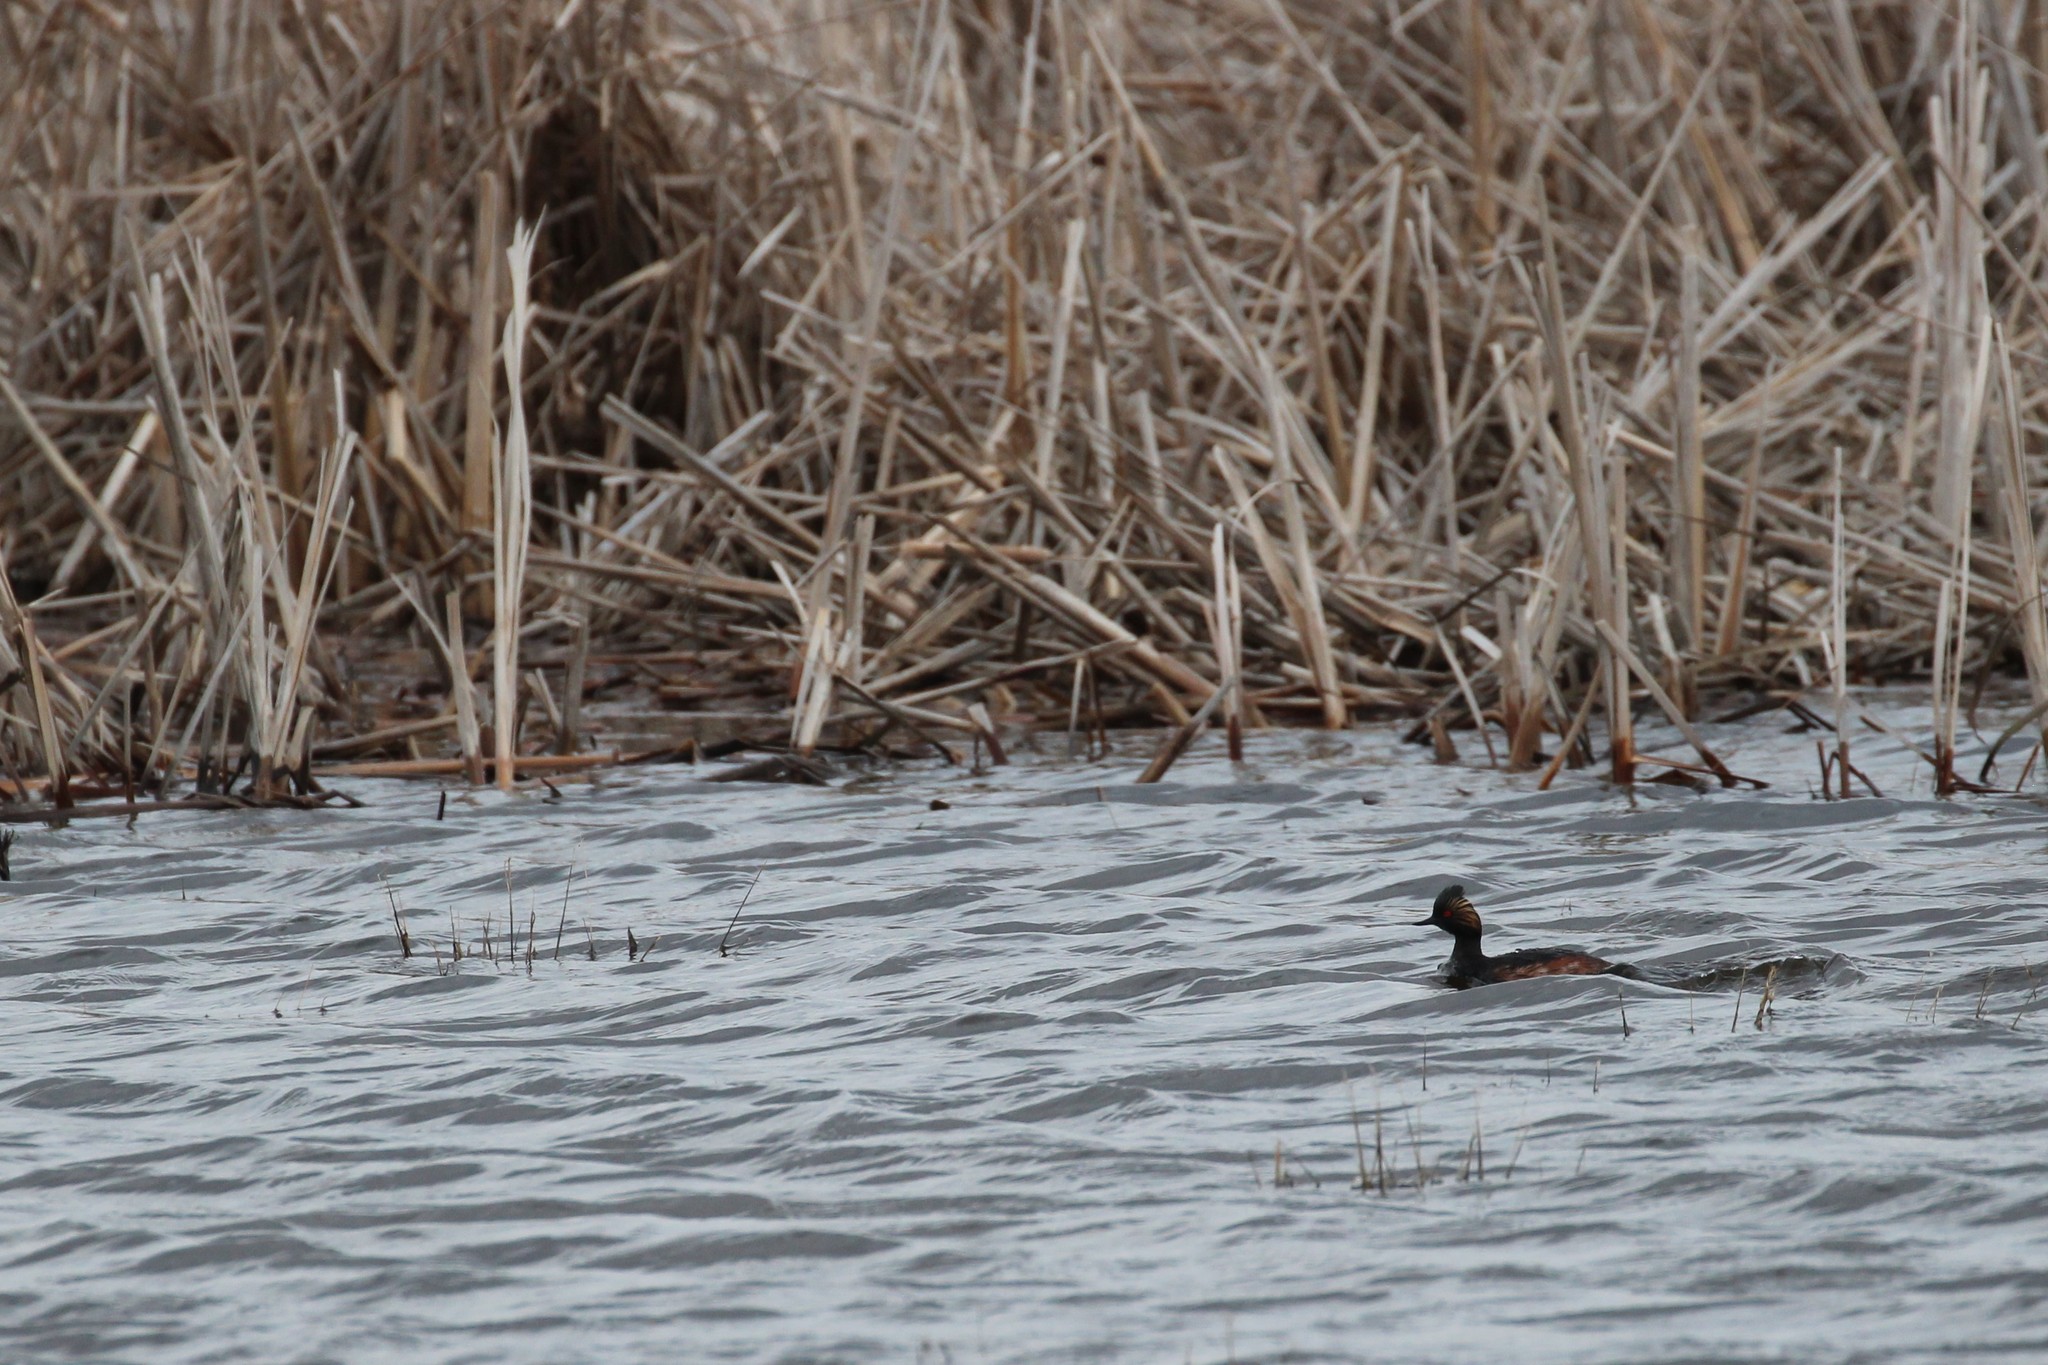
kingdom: Animalia
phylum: Chordata
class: Aves
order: Podicipediformes
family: Podicipedidae
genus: Podiceps
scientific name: Podiceps nigricollis
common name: Black-necked grebe
